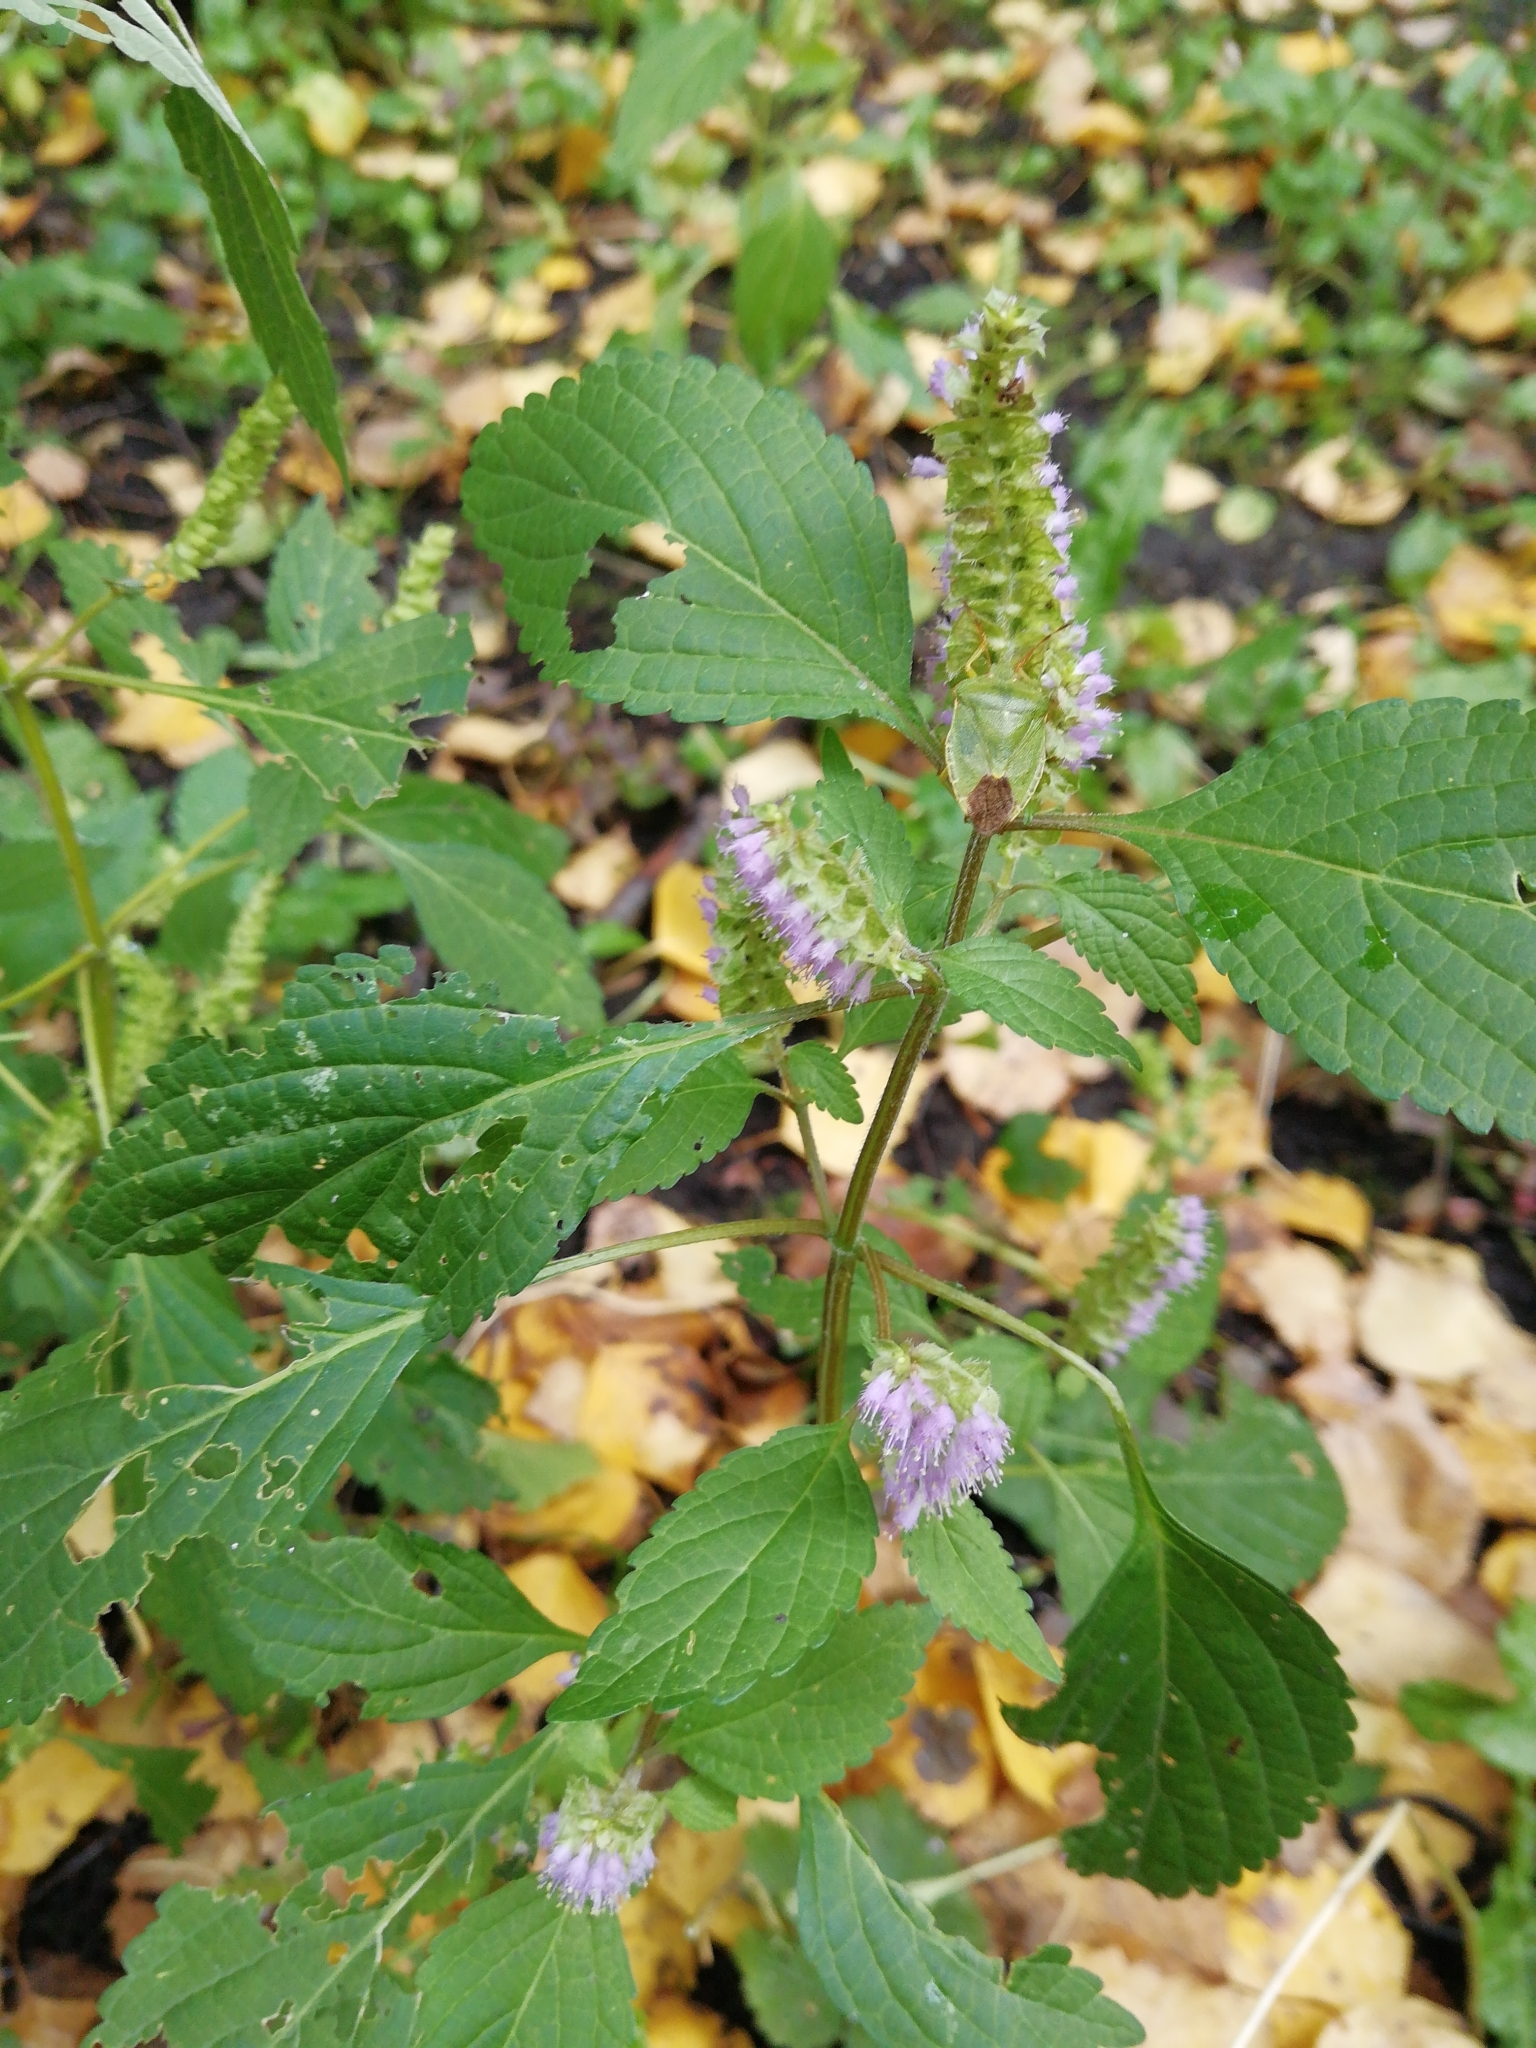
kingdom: Plantae
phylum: Tracheophyta
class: Magnoliopsida
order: Lamiales
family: Lamiaceae
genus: Elsholtzia
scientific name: Elsholtzia ciliata
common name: Ciliate elsholtzia
